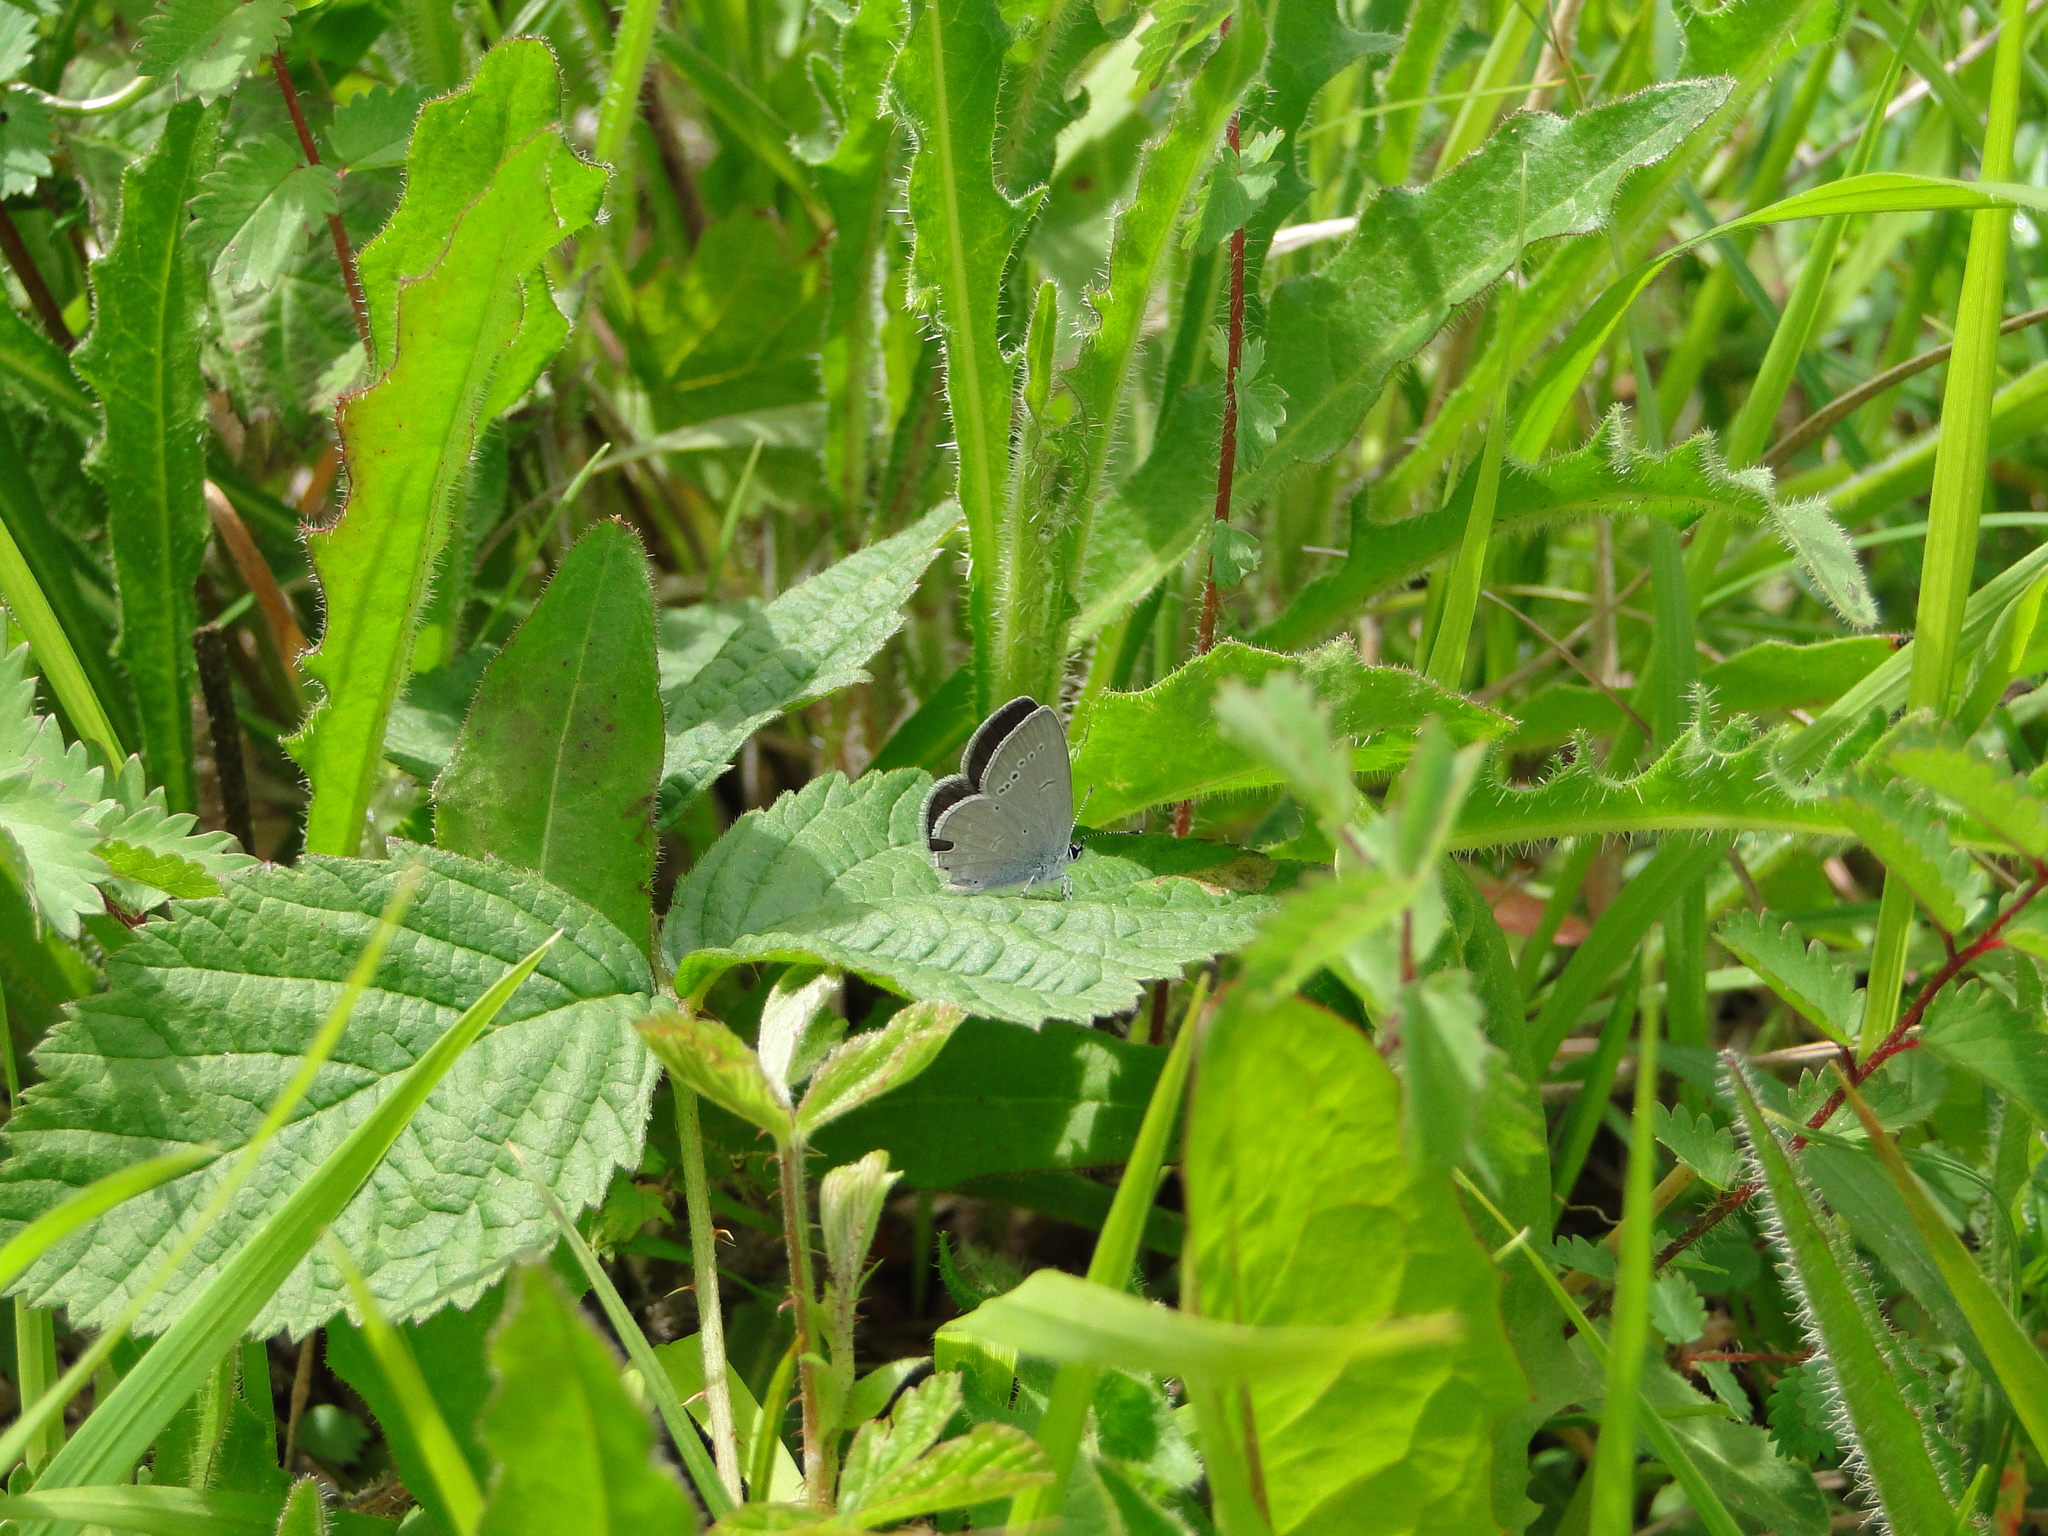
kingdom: Animalia
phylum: Arthropoda
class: Insecta
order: Lepidoptera
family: Lycaenidae
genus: Cupido
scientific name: Cupido minimus
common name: Small blue
